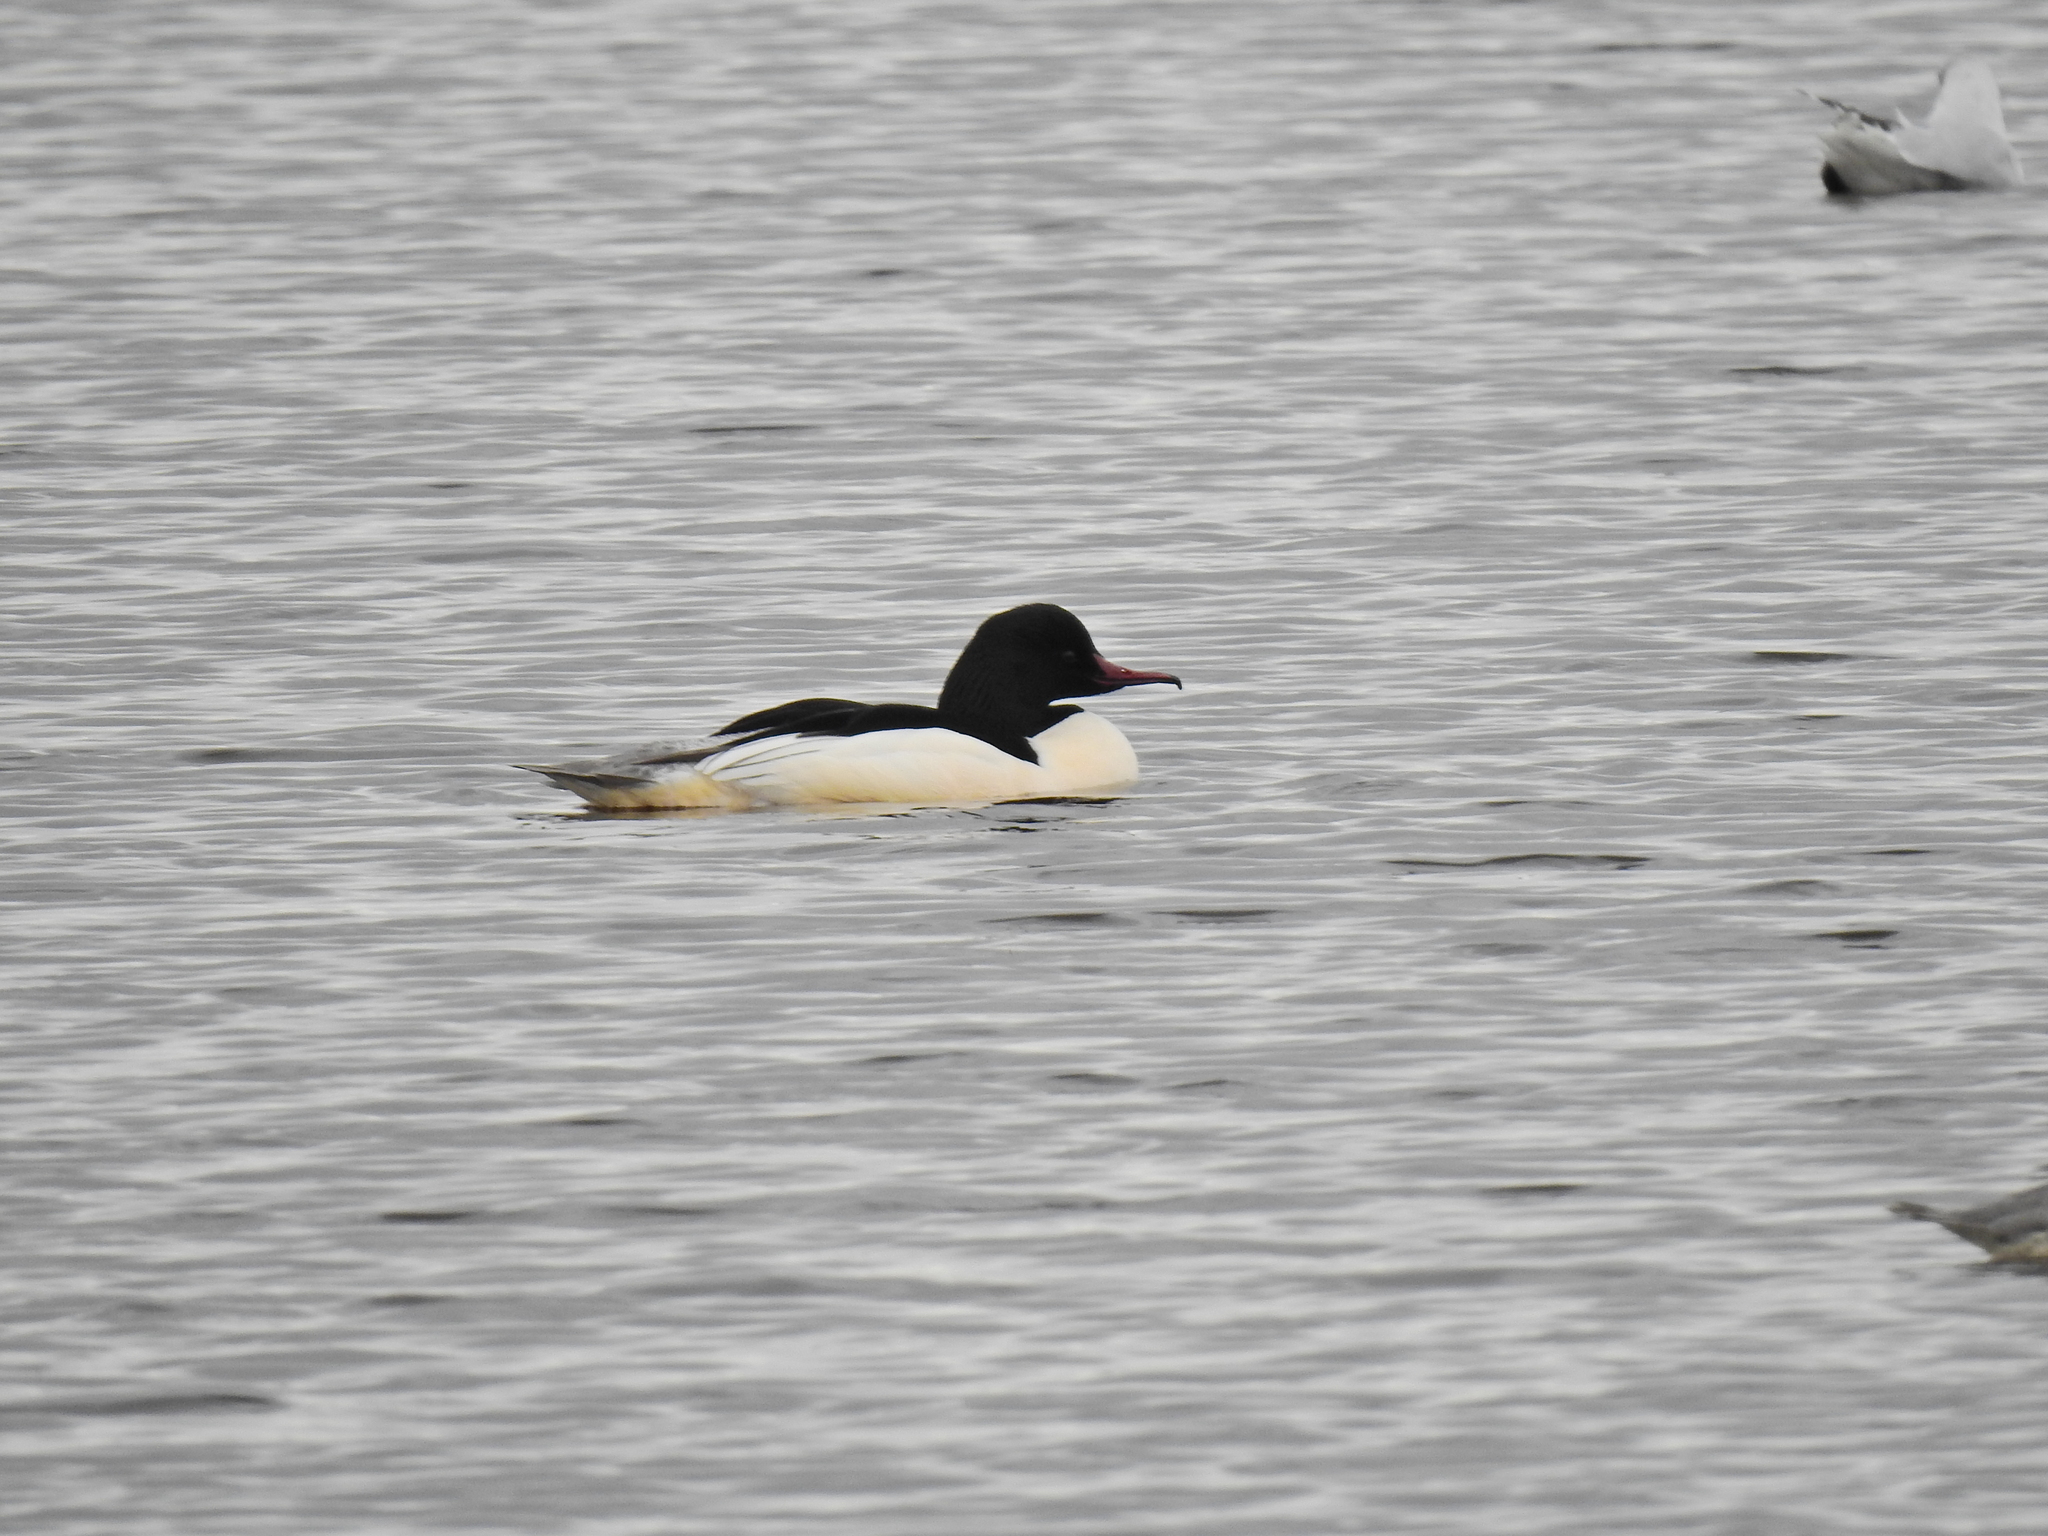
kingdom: Animalia
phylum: Chordata
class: Aves
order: Anseriformes
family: Anatidae
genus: Mergus
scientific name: Mergus merganser
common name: Common merganser
